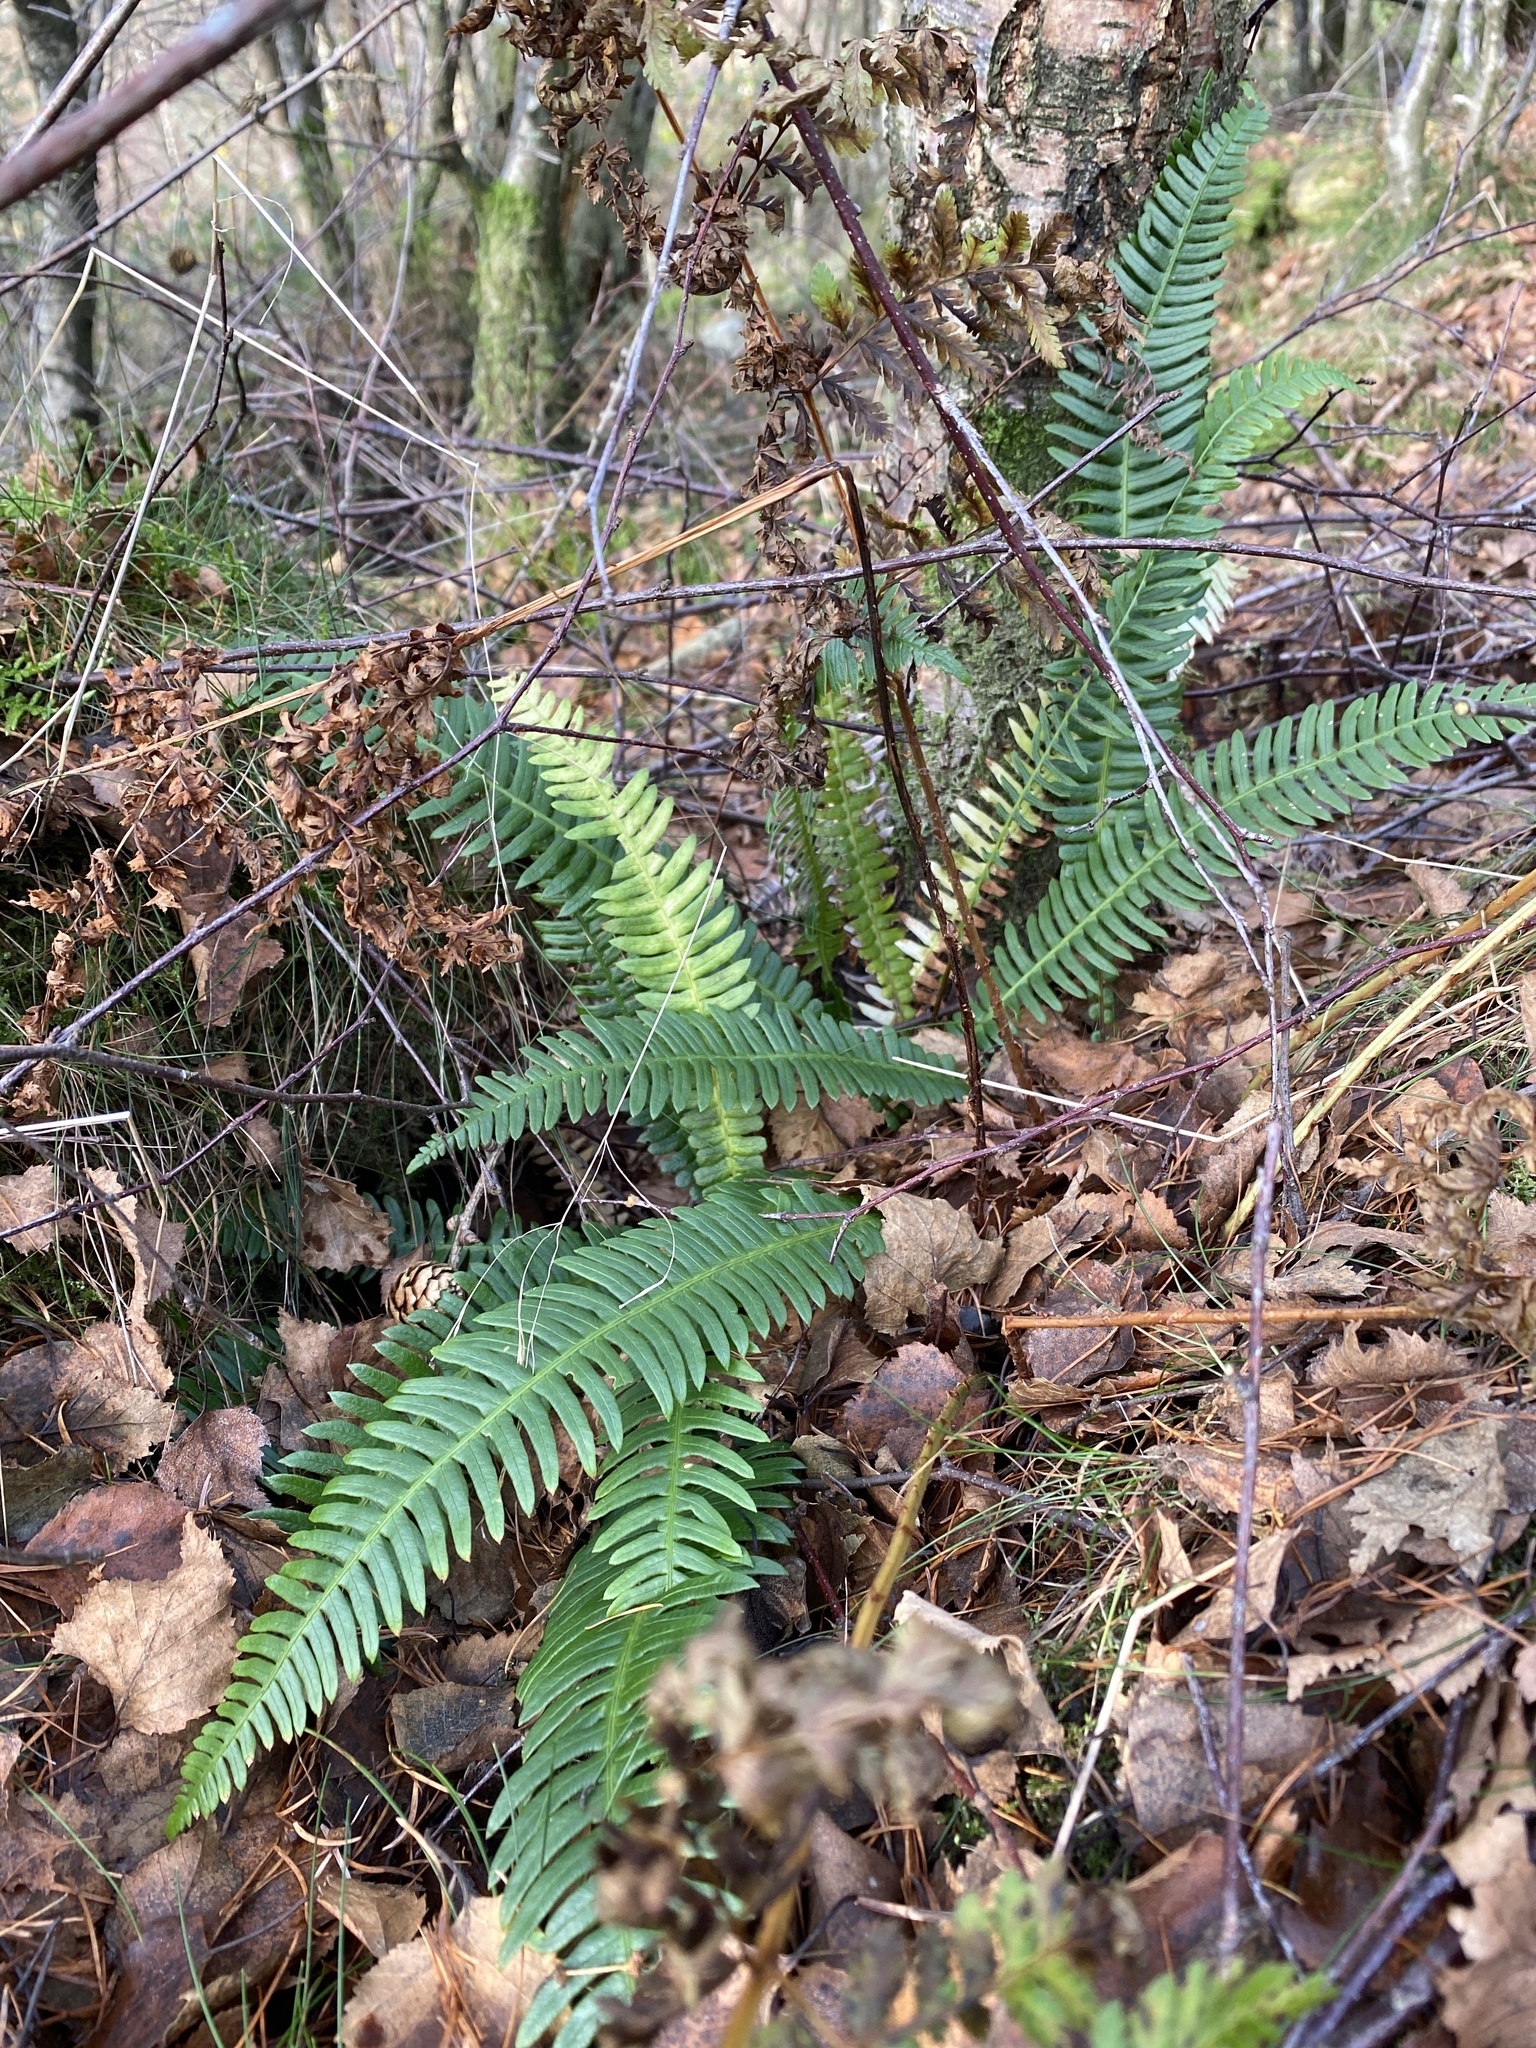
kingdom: Plantae
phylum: Tracheophyta
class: Polypodiopsida
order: Polypodiales
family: Blechnaceae
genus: Struthiopteris
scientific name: Struthiopteris spicant
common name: Deer fern
